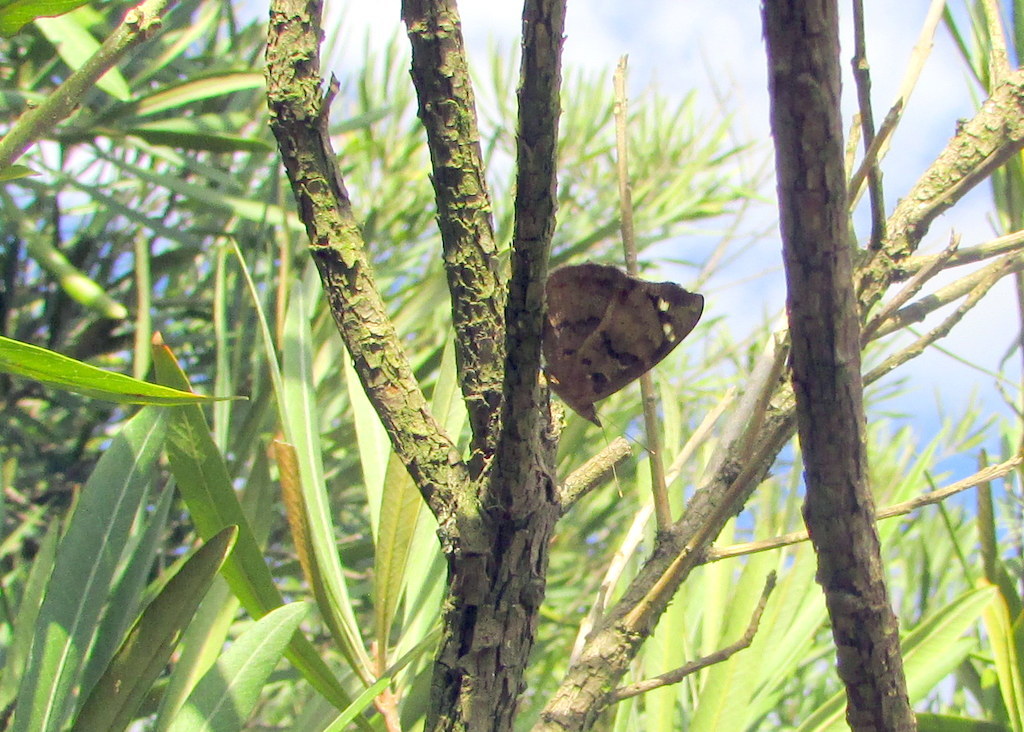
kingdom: Animalia
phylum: Arthropoda
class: Insecta
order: Lepidoptera
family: Nymphalidae
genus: Eunica
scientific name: Eunica tatila
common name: Florida purplewing
